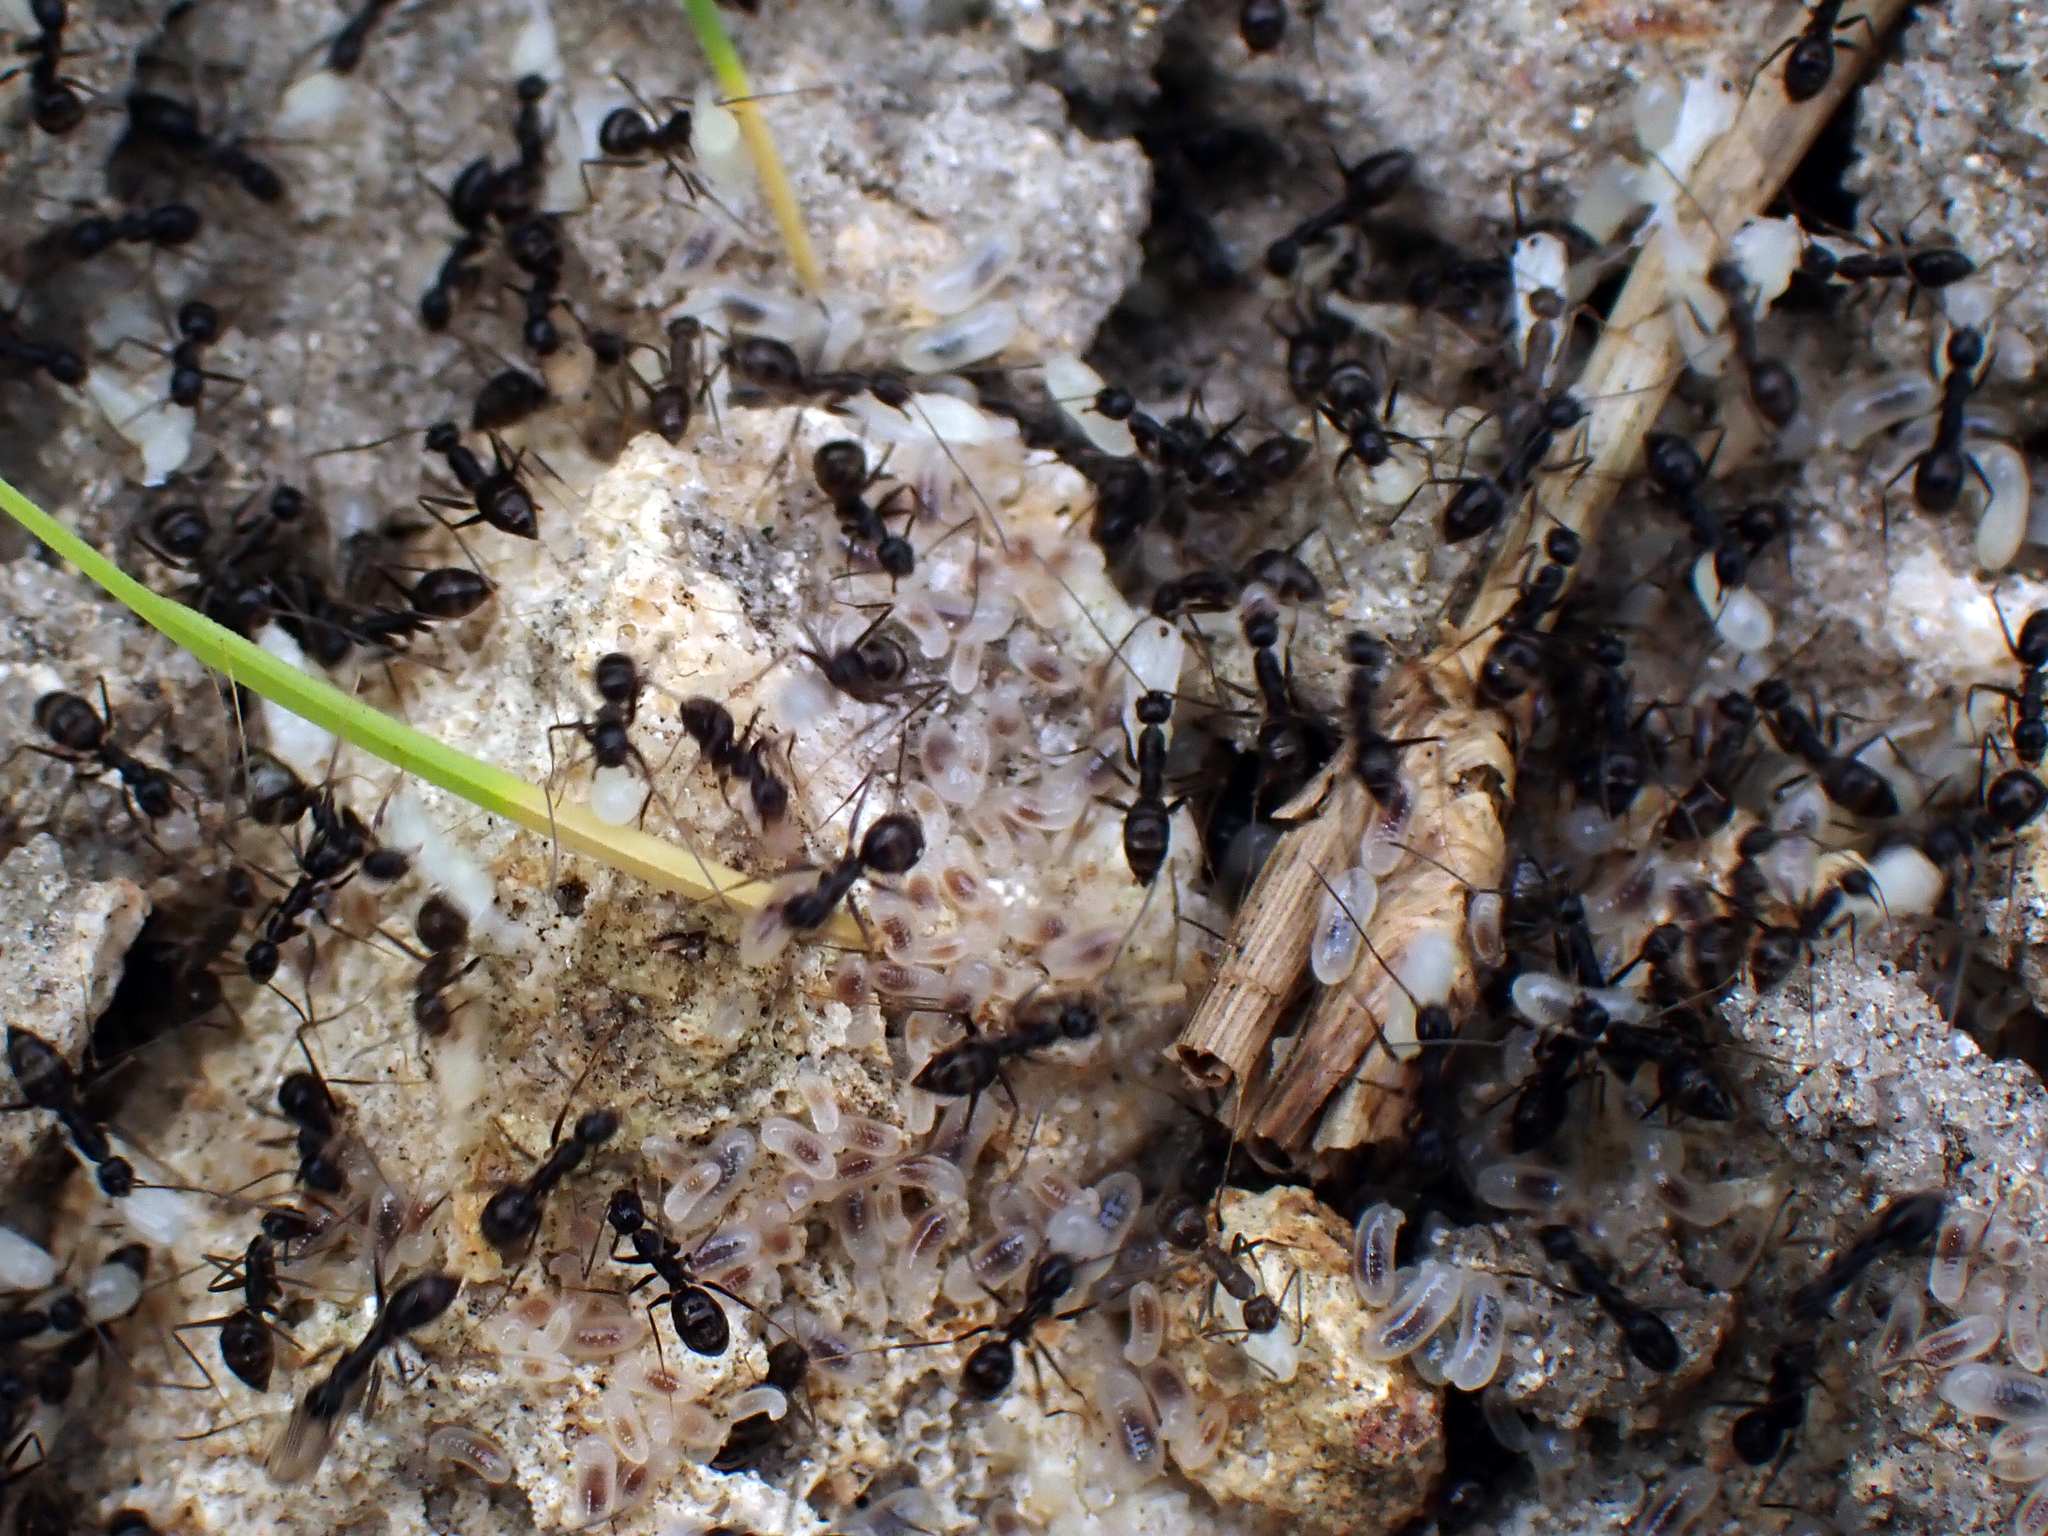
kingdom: Animalia
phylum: Arthropoda
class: Insecta
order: Hymenoptera
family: Formicidae
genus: Paratrechina
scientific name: Paratrechina longicornis
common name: Longhorned crazy ant
